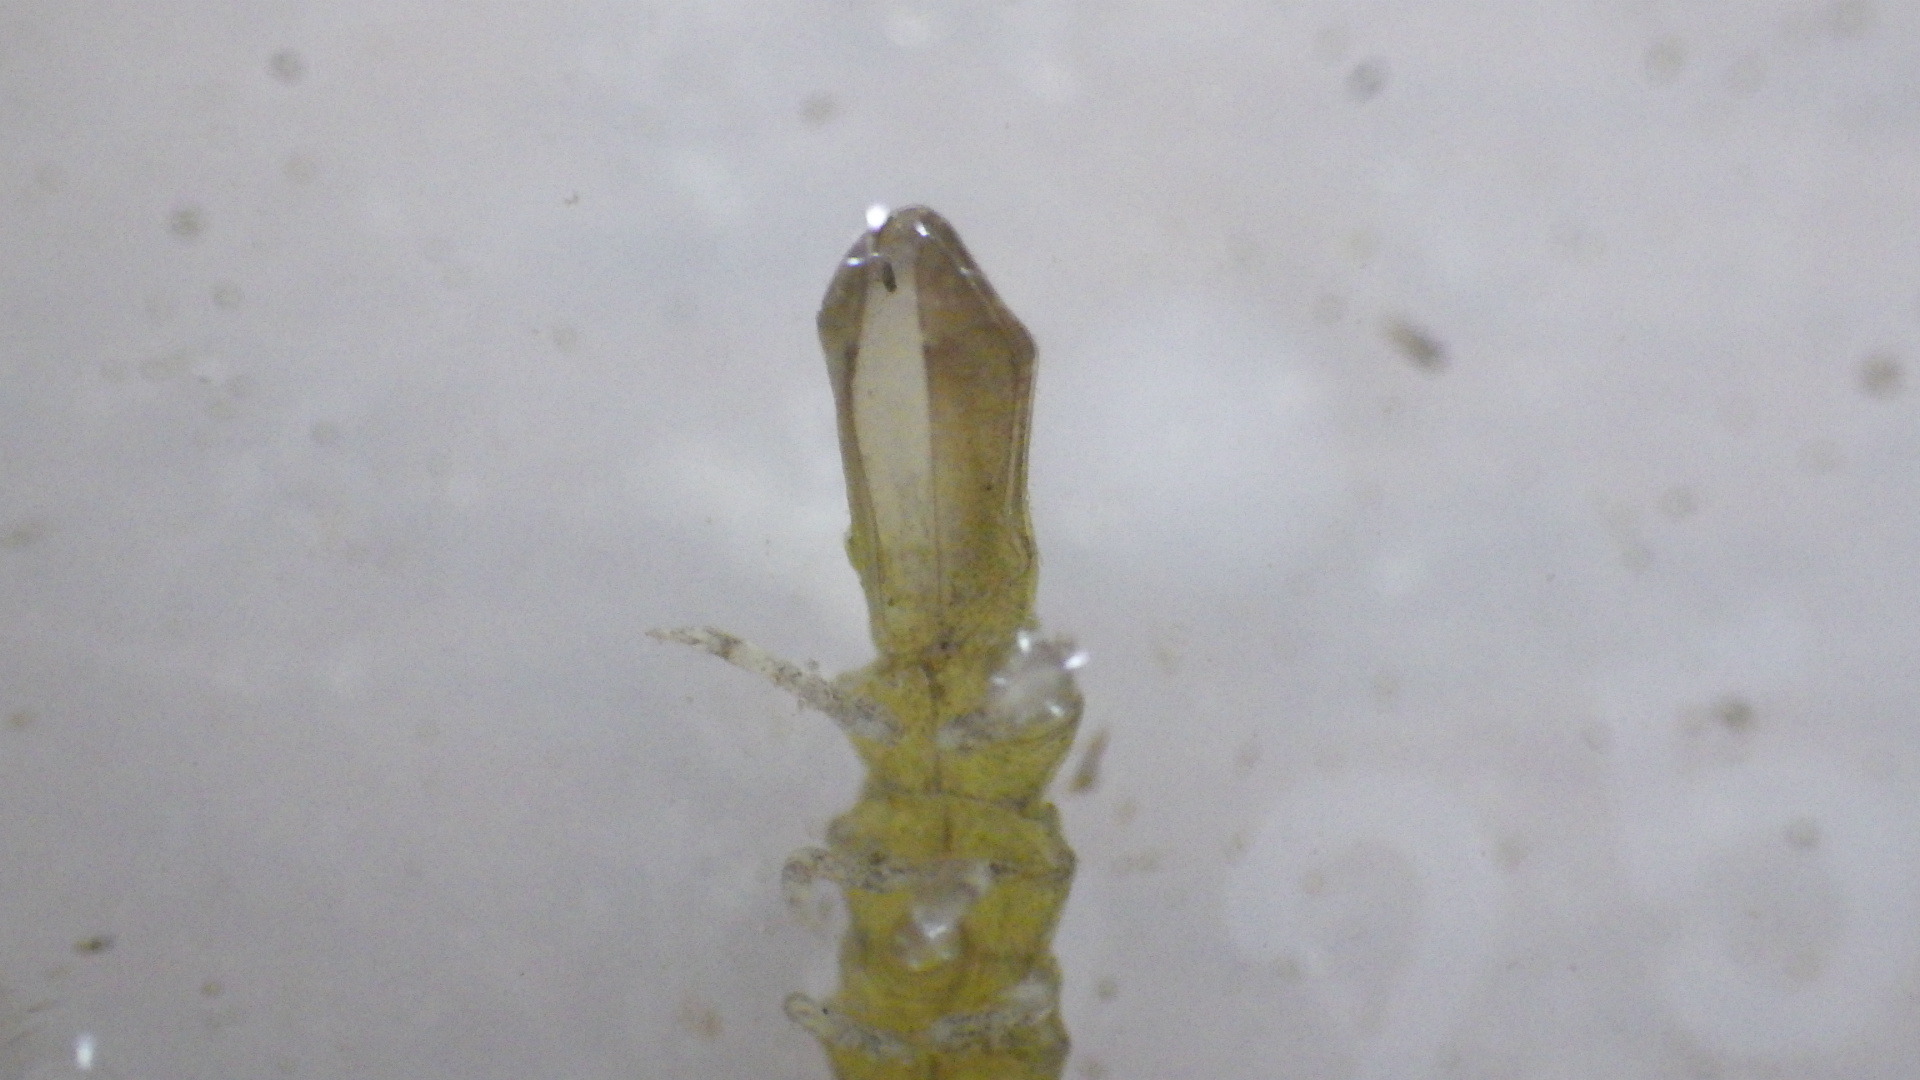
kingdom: Animalia
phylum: Arthropoda
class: Malacostraca
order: Isopoda
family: Idoteidae
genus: Erichsonella
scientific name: Erichsonella attenuata
